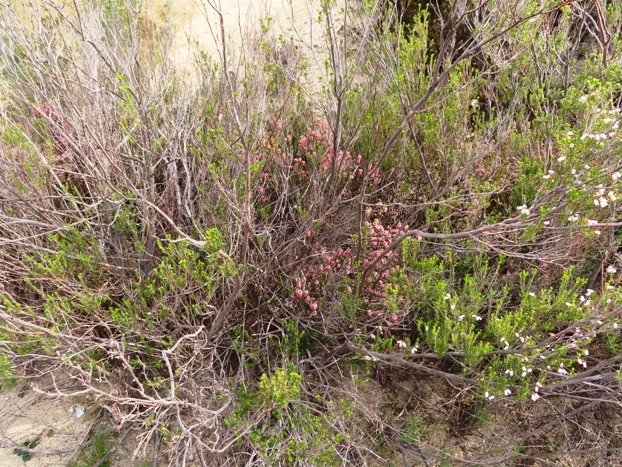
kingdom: Plantae
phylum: Tracheophyta
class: Magnoliopsida
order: Ericales
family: Ericaceae
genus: Erica
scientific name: Erica verecunda
